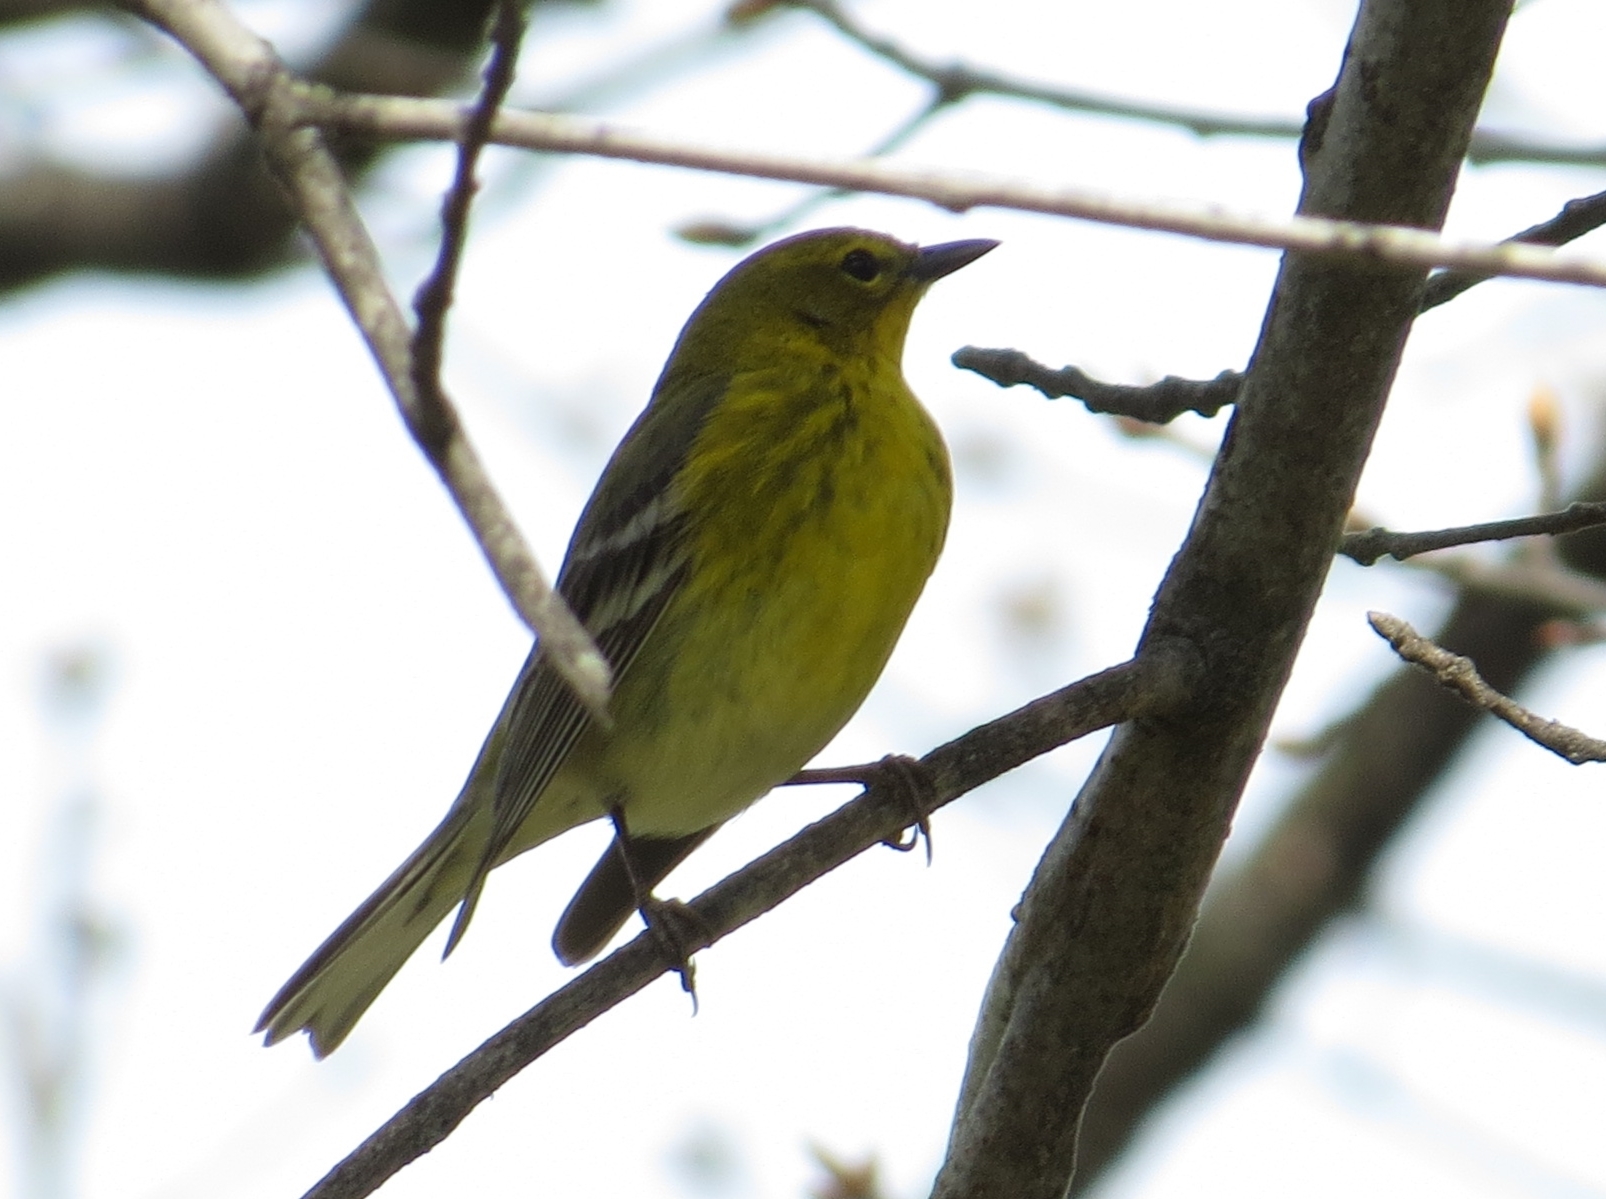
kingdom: Animalia
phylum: Chordata
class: Aves
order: Passeriformes
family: Parulidae
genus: Setophaga
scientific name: Setophaga pinus
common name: Pine warbler
